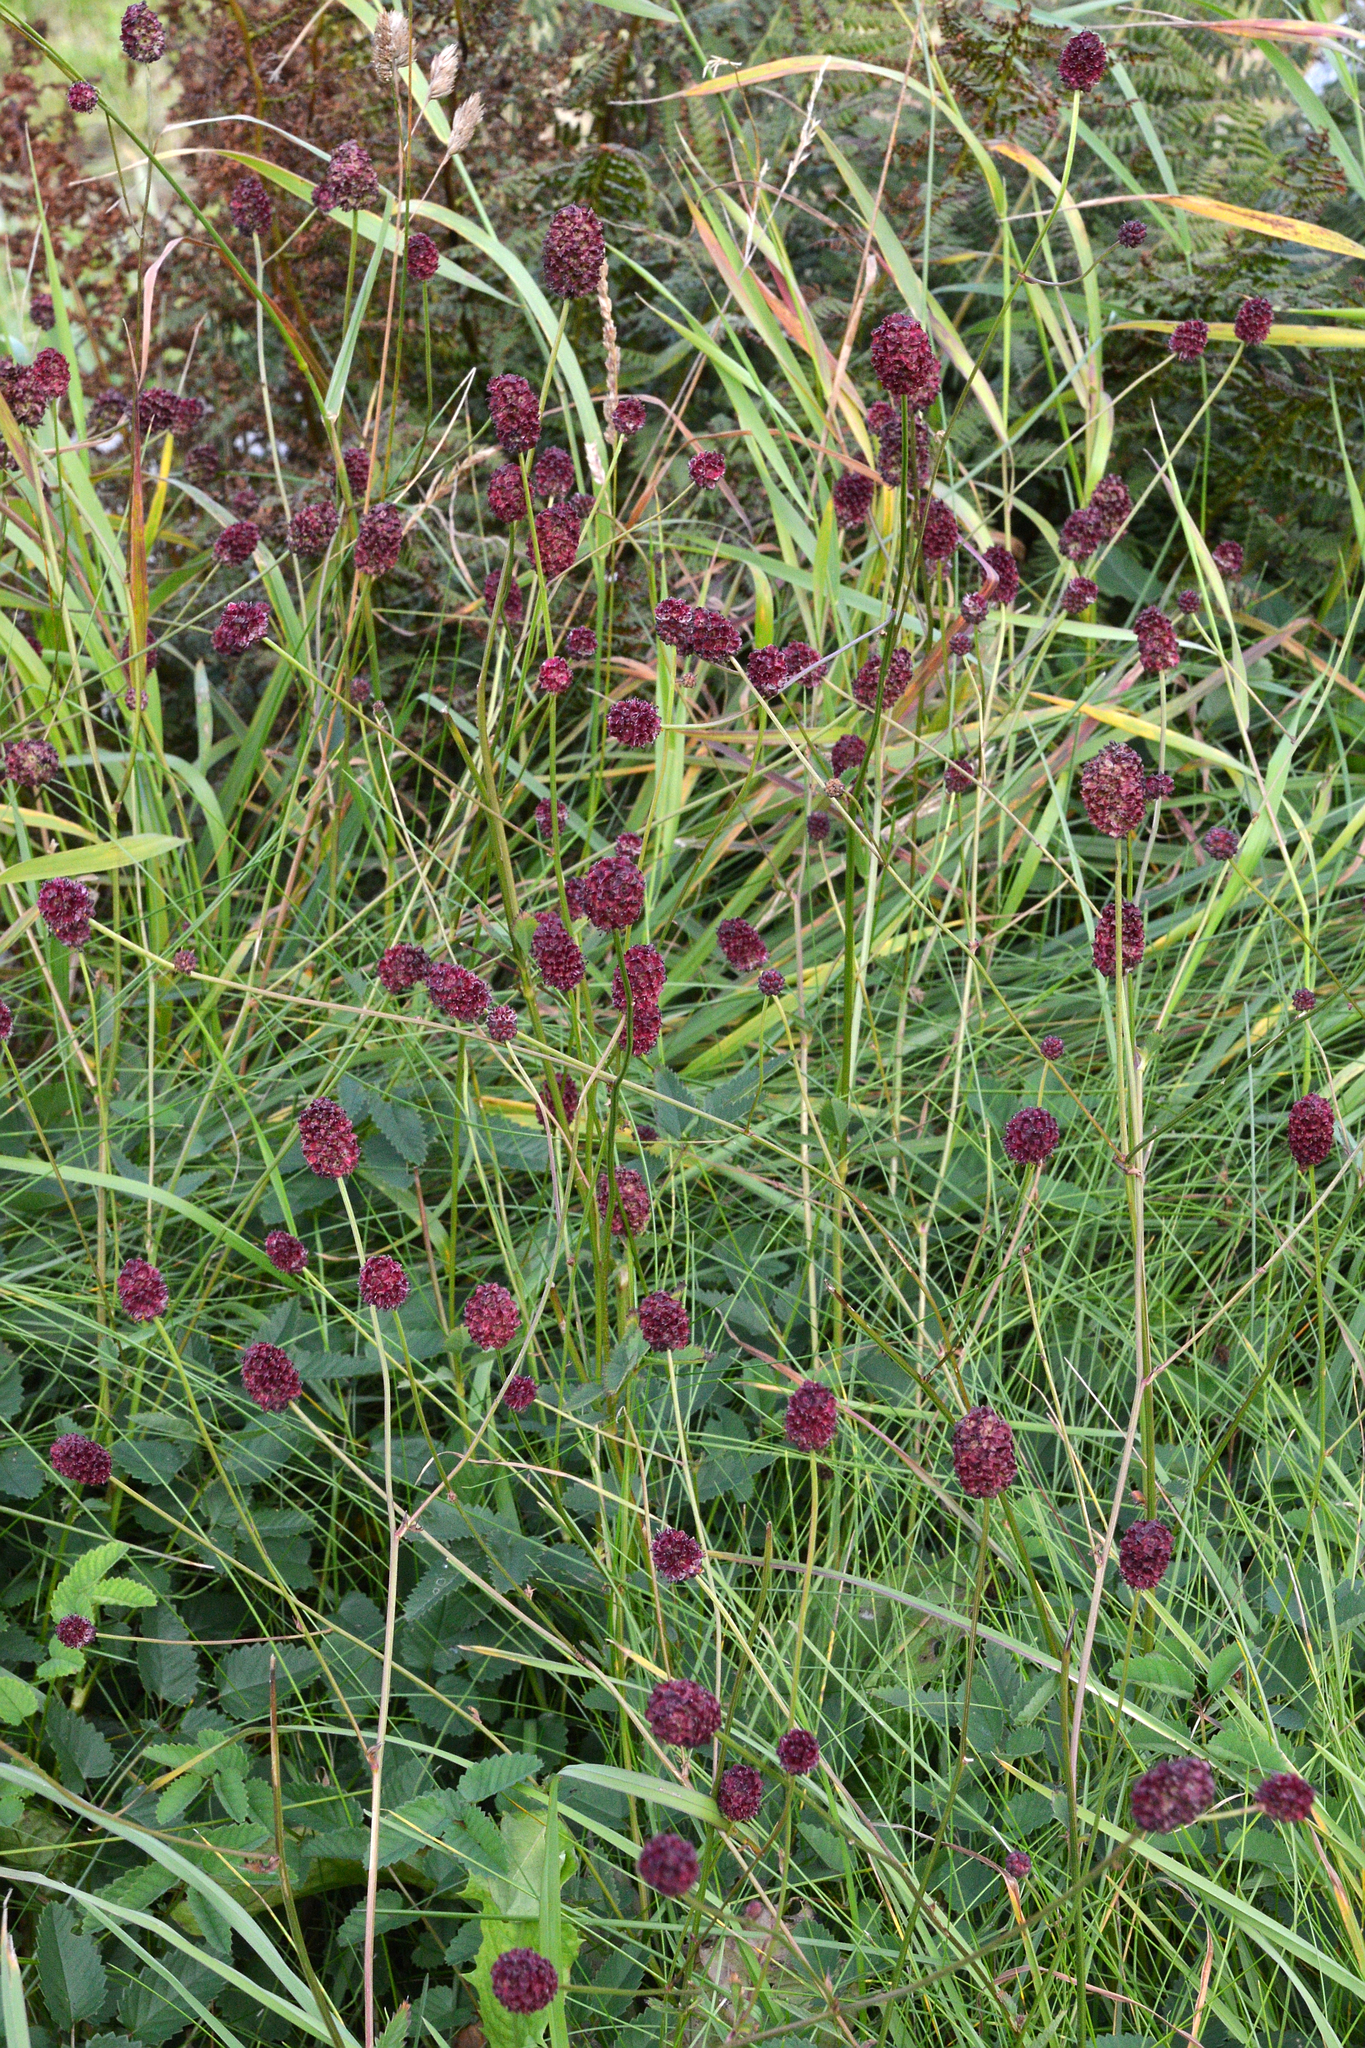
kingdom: Plantae
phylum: Tracheophyta
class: Magnoliopsida
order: Rosales
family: Rosaceae
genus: Sanguisorba
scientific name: Sanguisorba officinalis
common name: Great burnet
